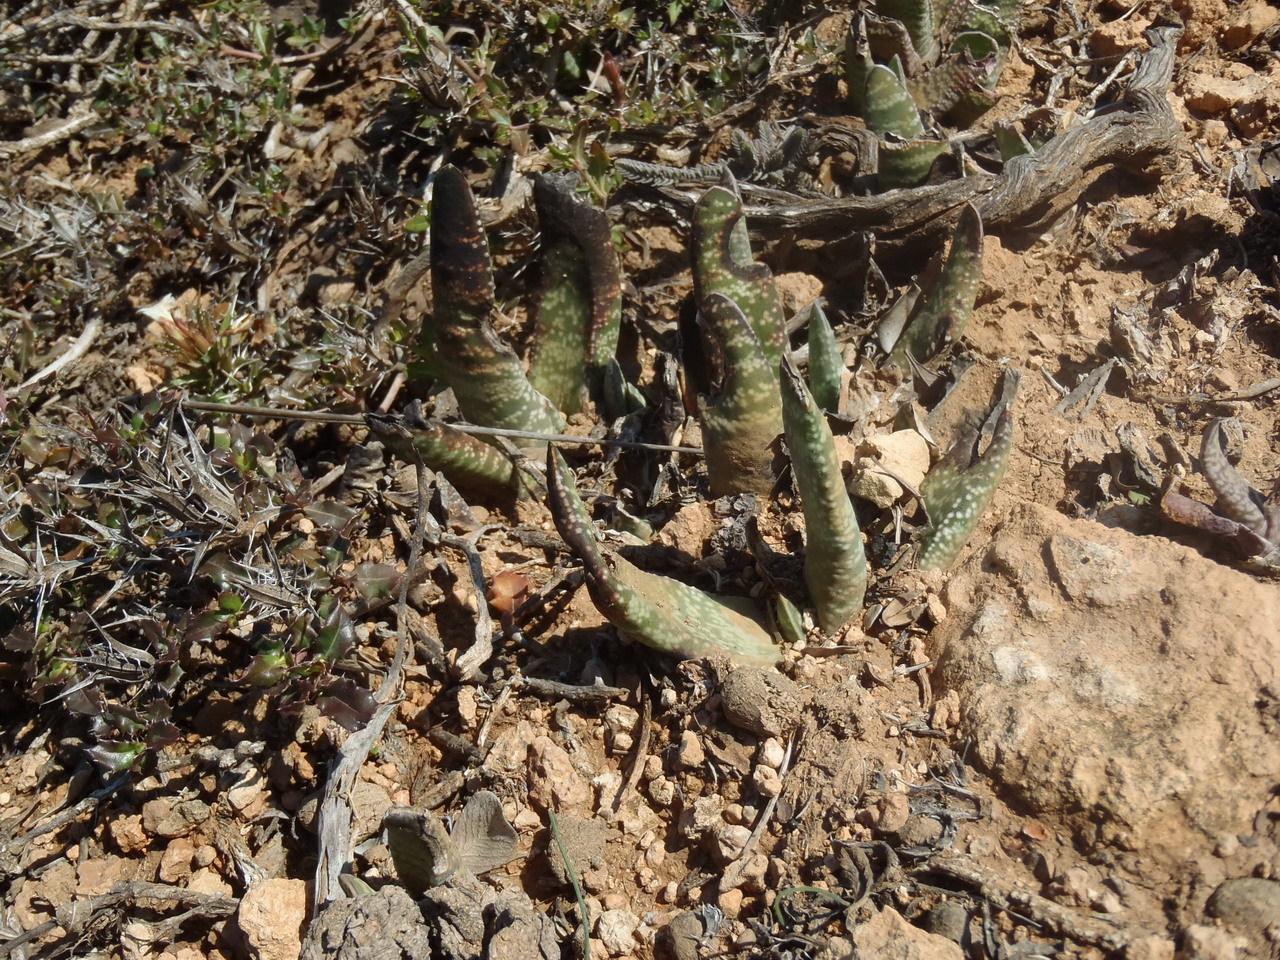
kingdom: Plantae
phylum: Tracheophyta
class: Liliopsida
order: Asparagales
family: Asphodelaceae
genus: Gasteria
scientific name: Gasteria carinata
